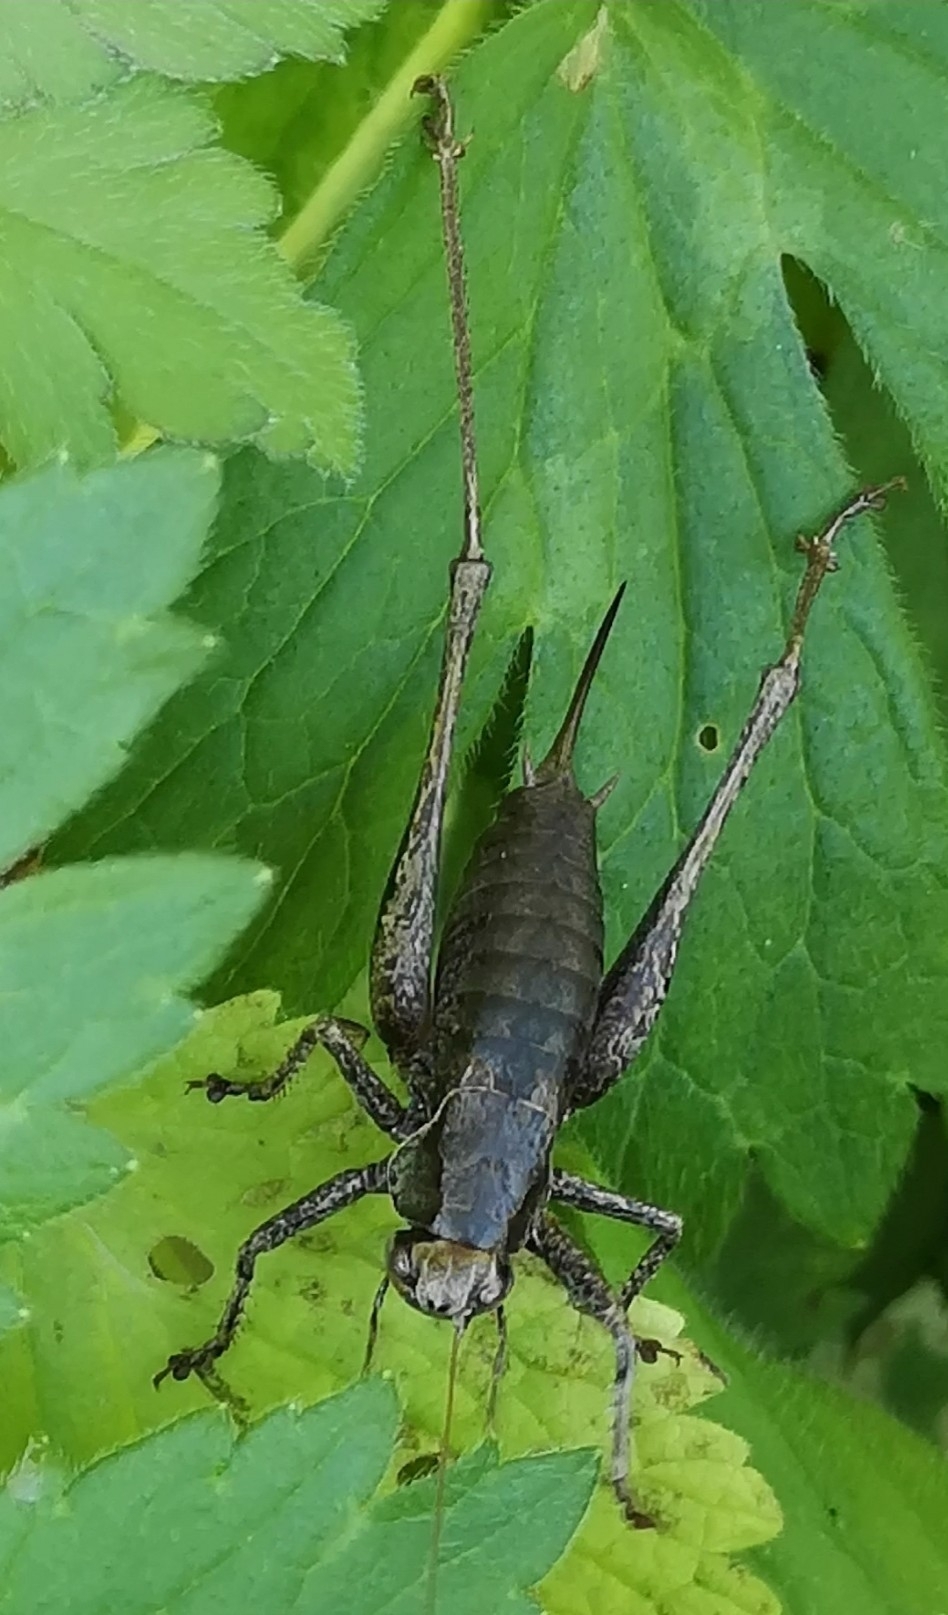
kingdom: Animalia
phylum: Arthropoda
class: Insecta
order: Orthoptera
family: Tettigoniidae
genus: Pholidoptera
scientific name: Pholidoptera griseoaptera
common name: Dark bush-cricket
